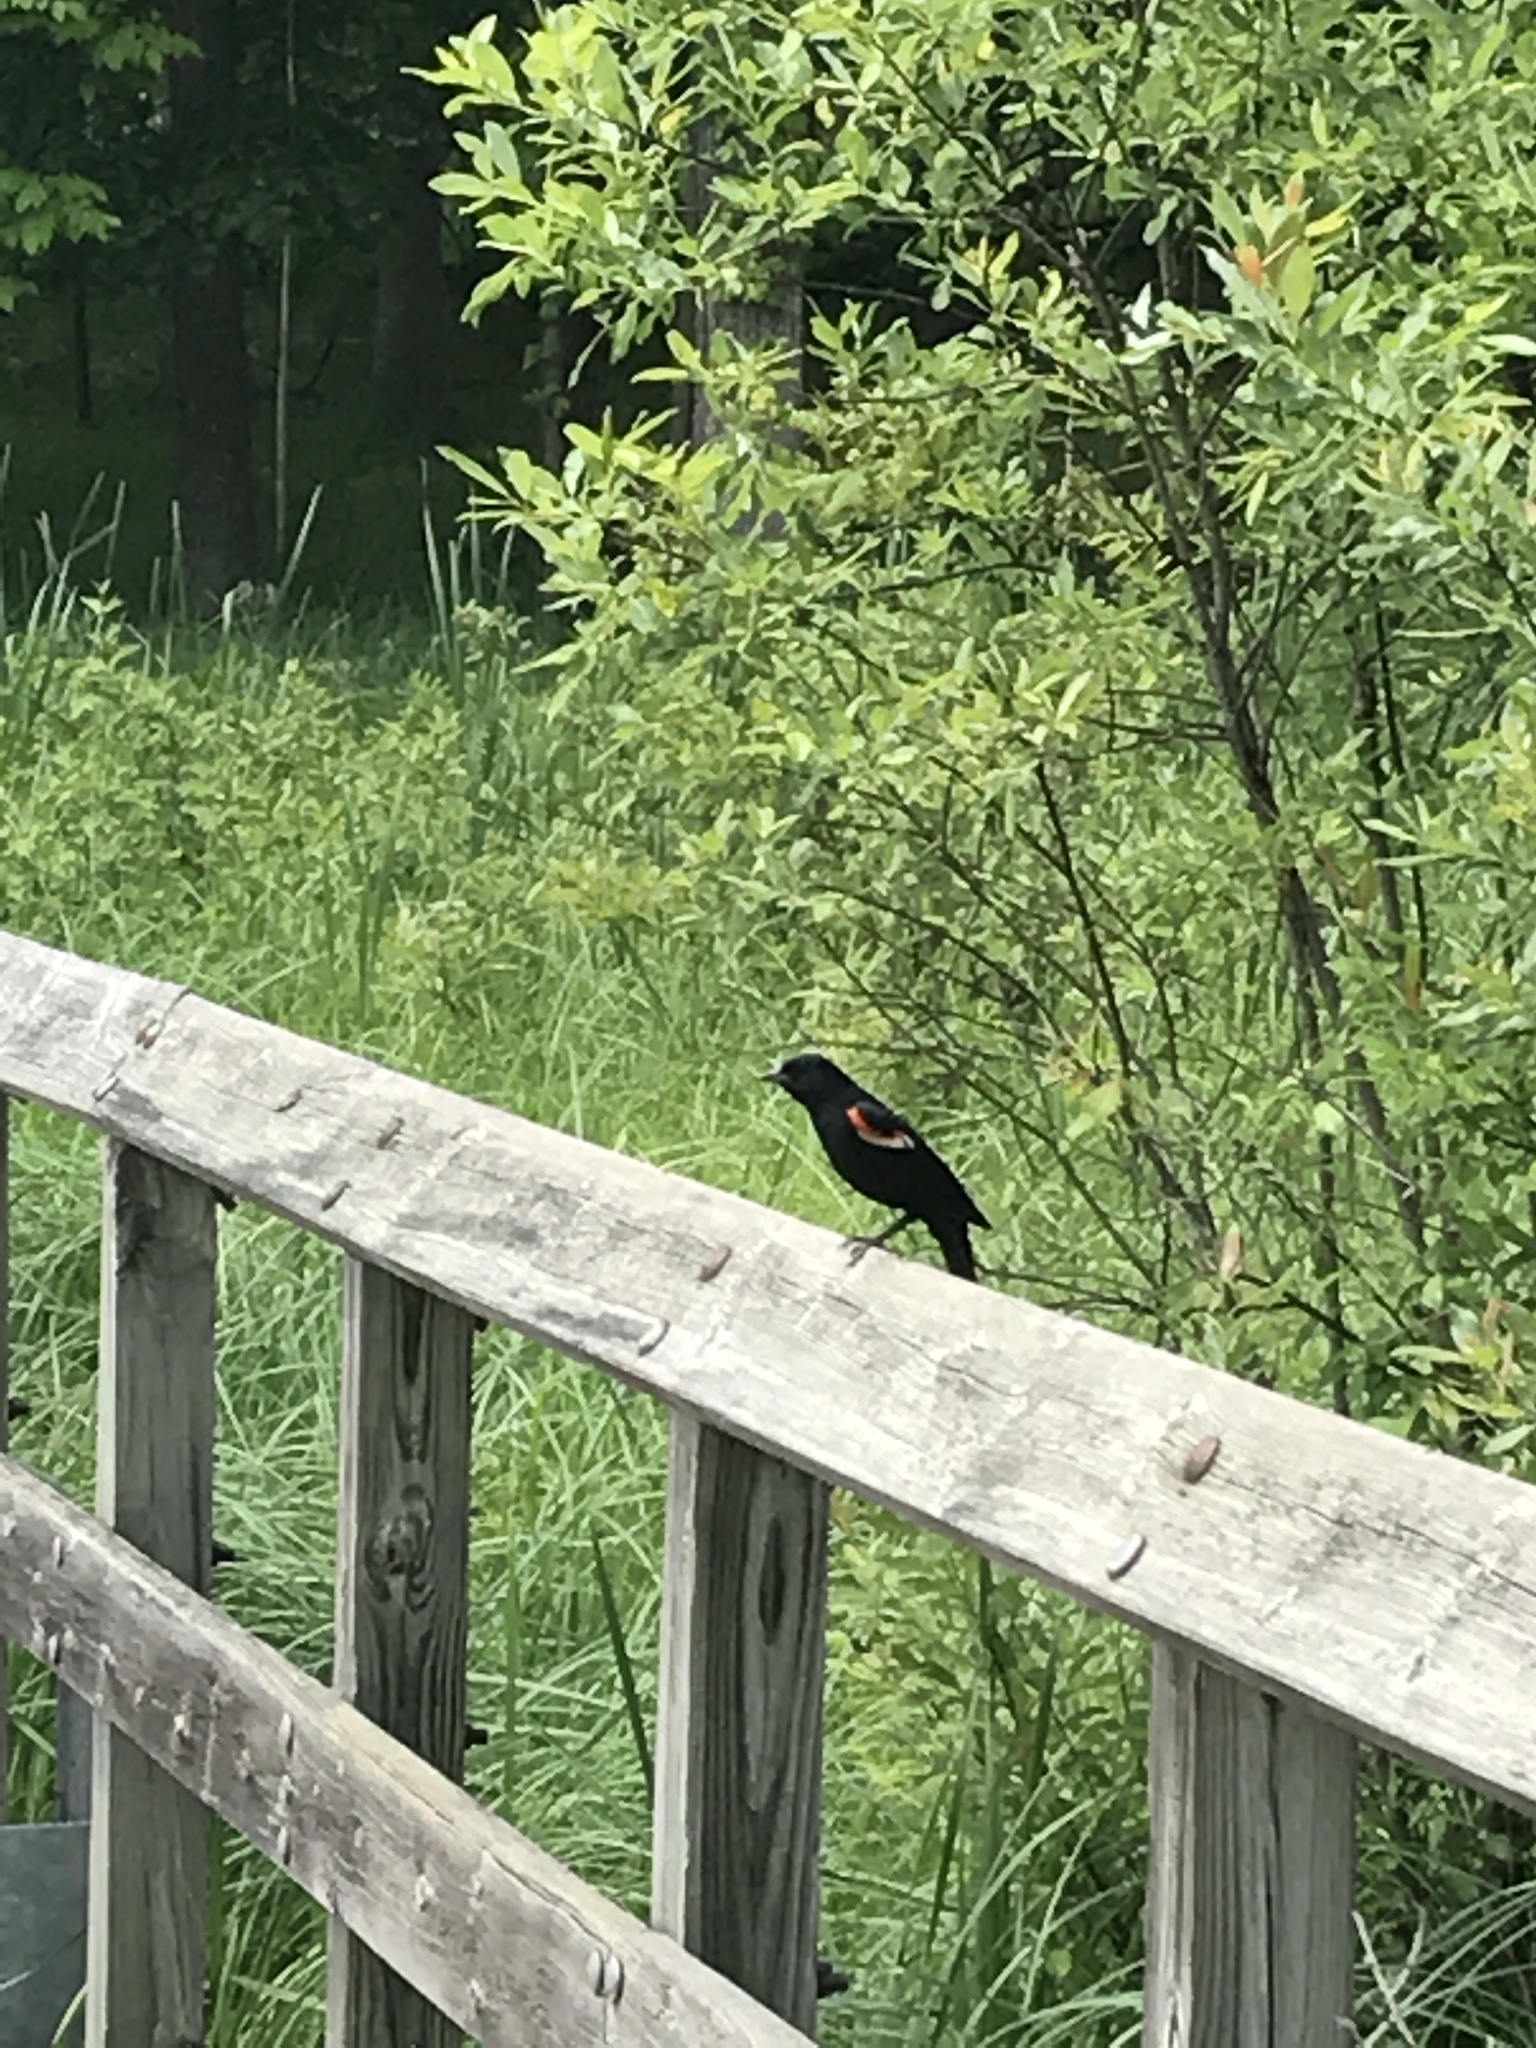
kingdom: Animalia
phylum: Chordata
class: Aves
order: Passeriformes
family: Icteridae
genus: Agelaius
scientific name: Agelaius phoeniceus
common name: Red-winged blackbird
